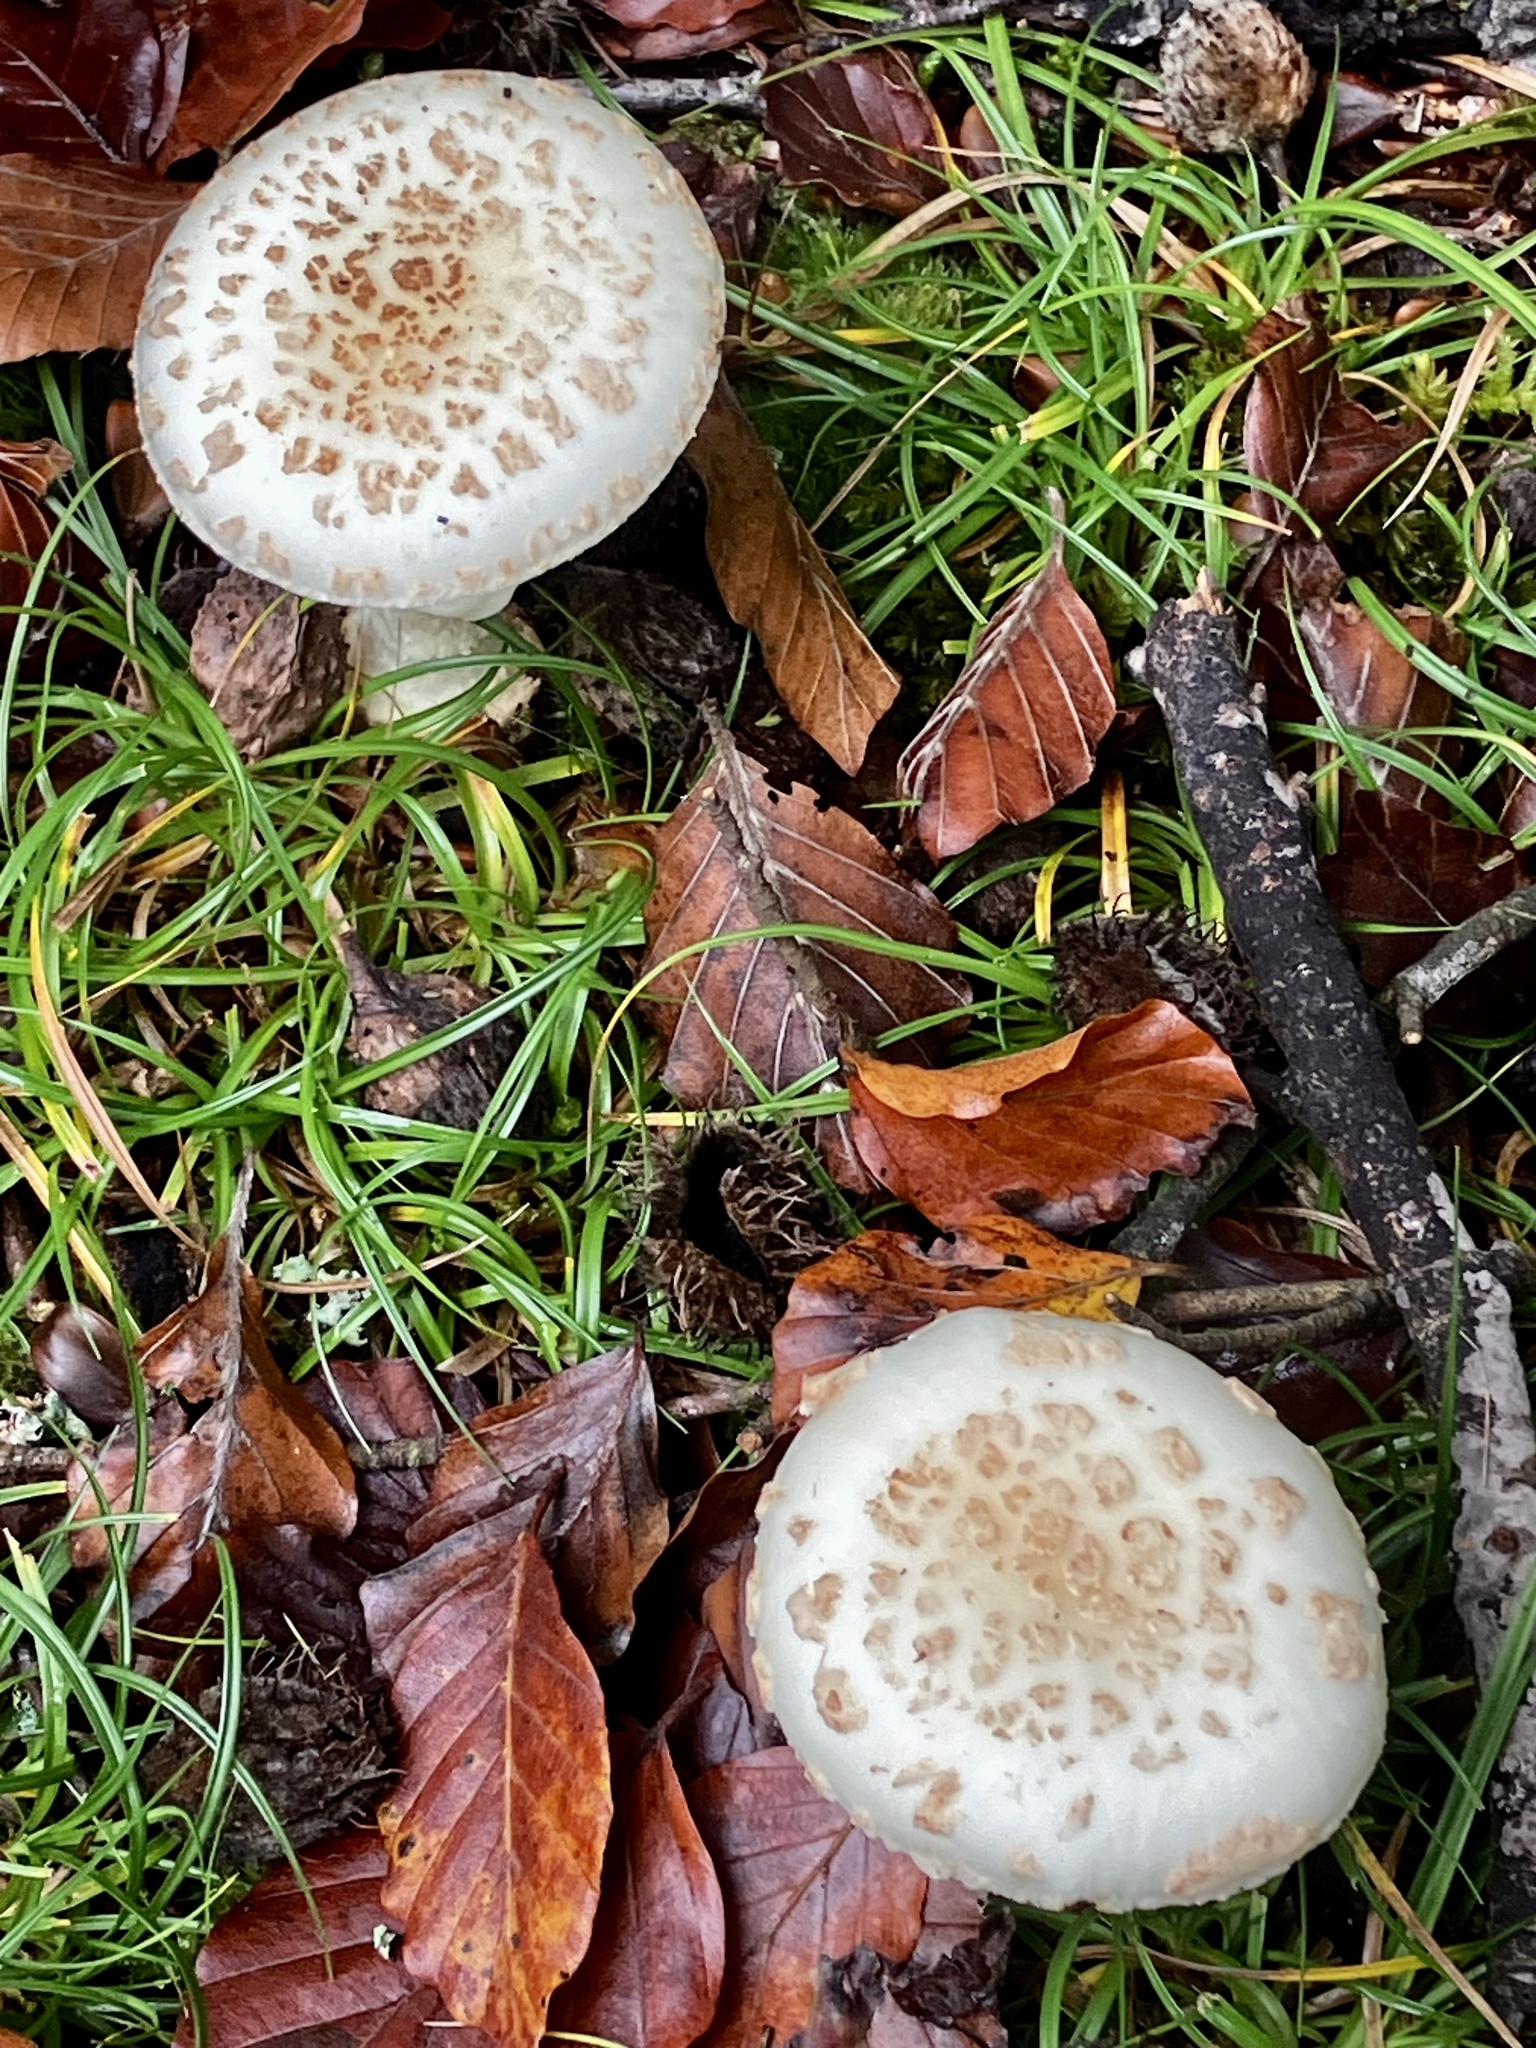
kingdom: Fungi
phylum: Basidiomycota
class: Agaricomycetes
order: Agaricales
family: Amanitaceae
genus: Amanita
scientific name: Amanita citrina
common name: False death-cap
